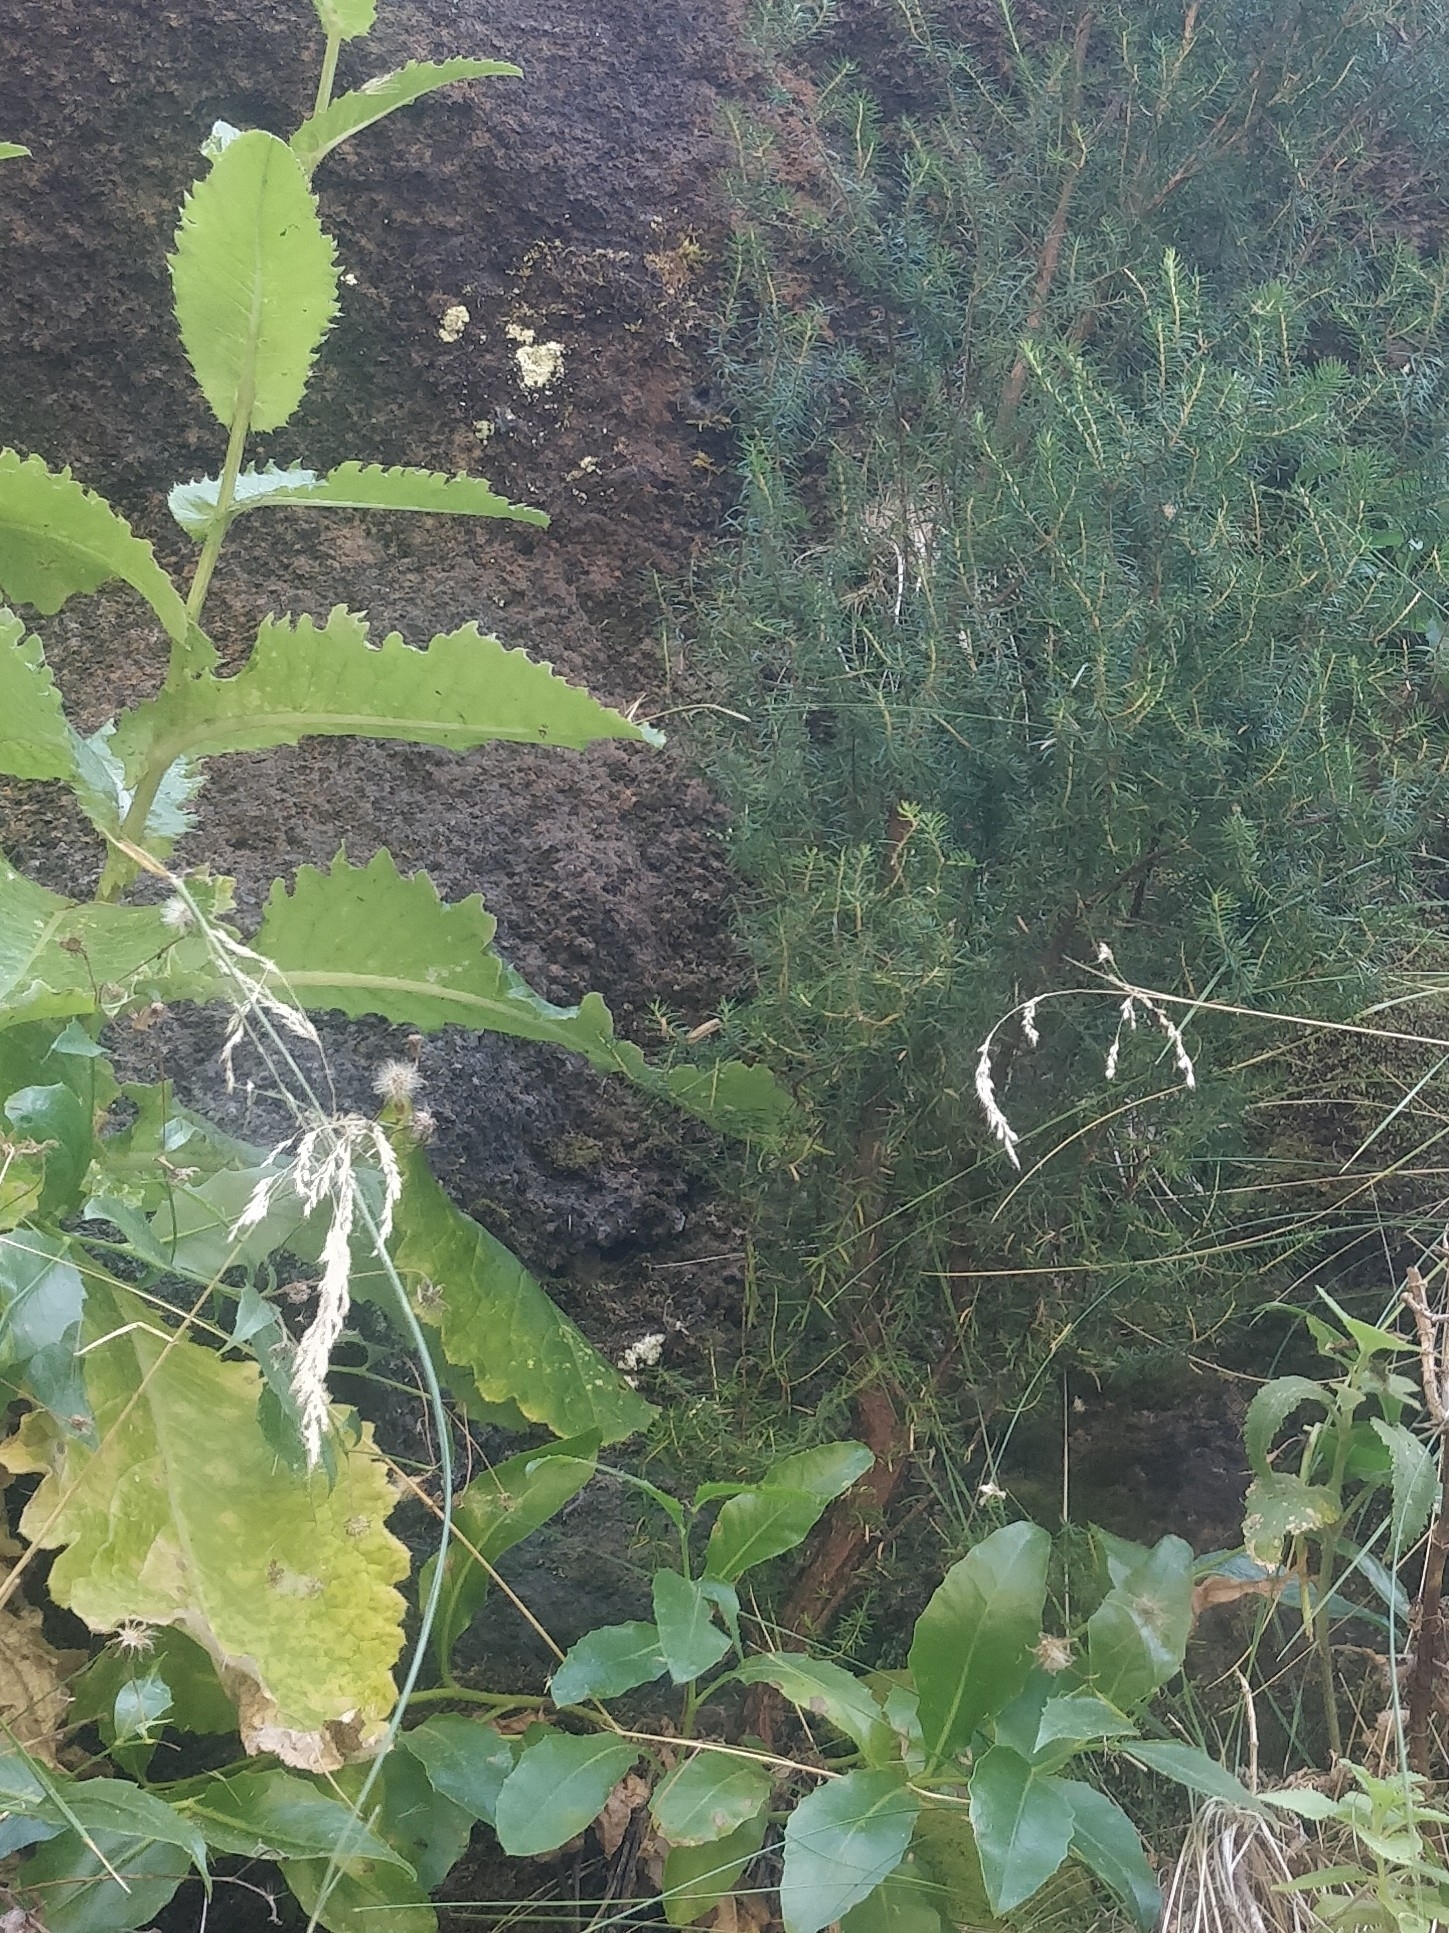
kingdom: Plantae
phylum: Tracheophyta
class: Magnoliopsida
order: Asterales
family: Asteraceae
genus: Cirsium
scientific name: Cirsium latifolium
